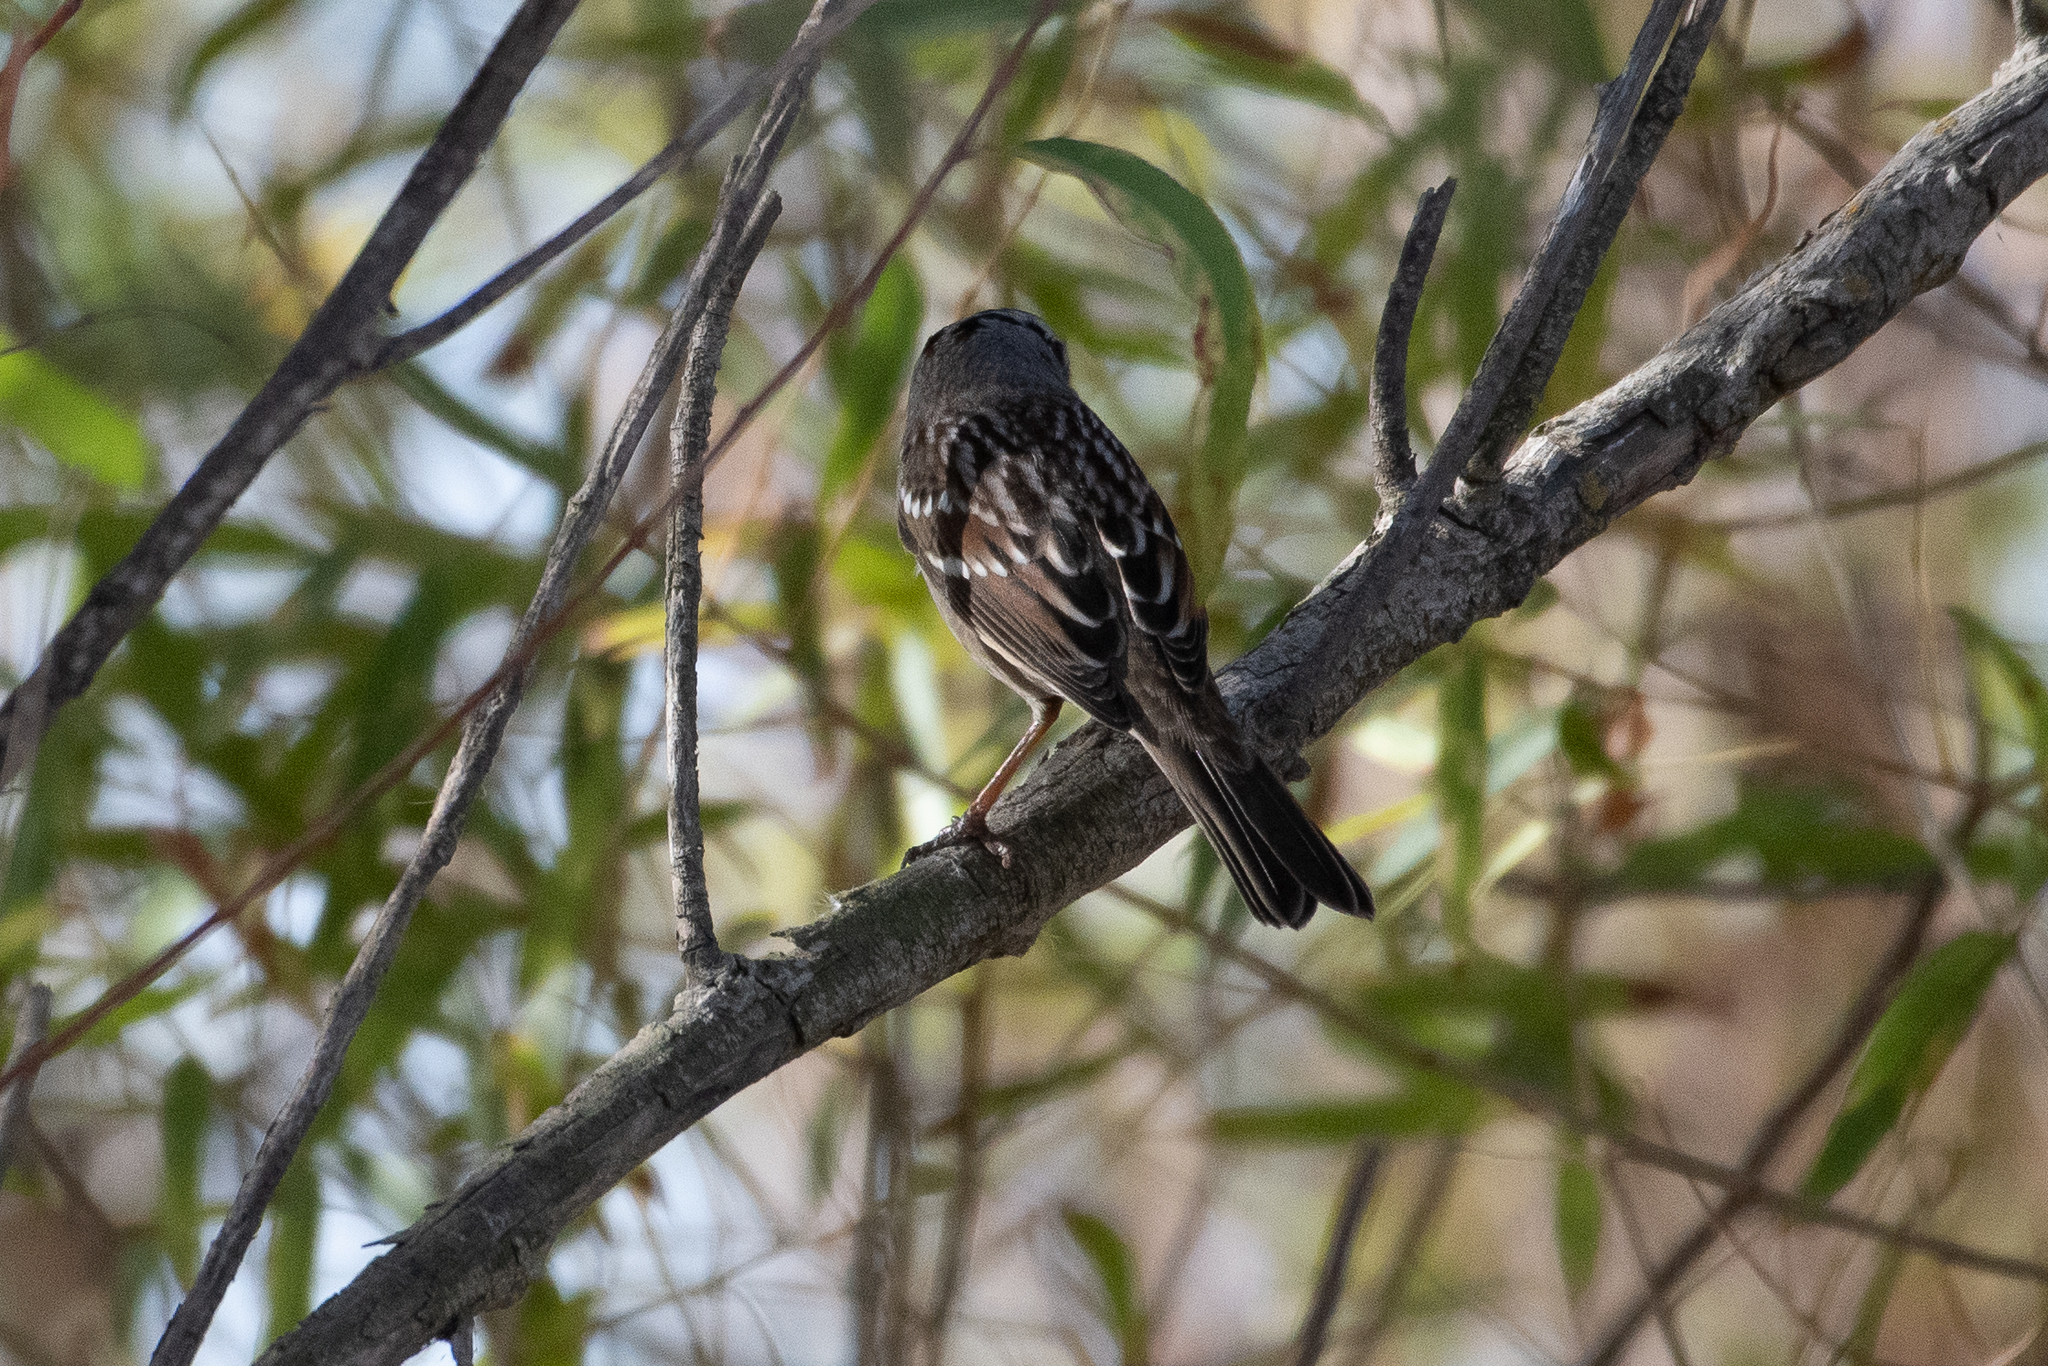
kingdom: Animalia
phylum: Chordata
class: Aves
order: Passeriformes
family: Passerellidae
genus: Zonotrichia
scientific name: Zonotrichia leucophrys
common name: White-crowned sparrow
